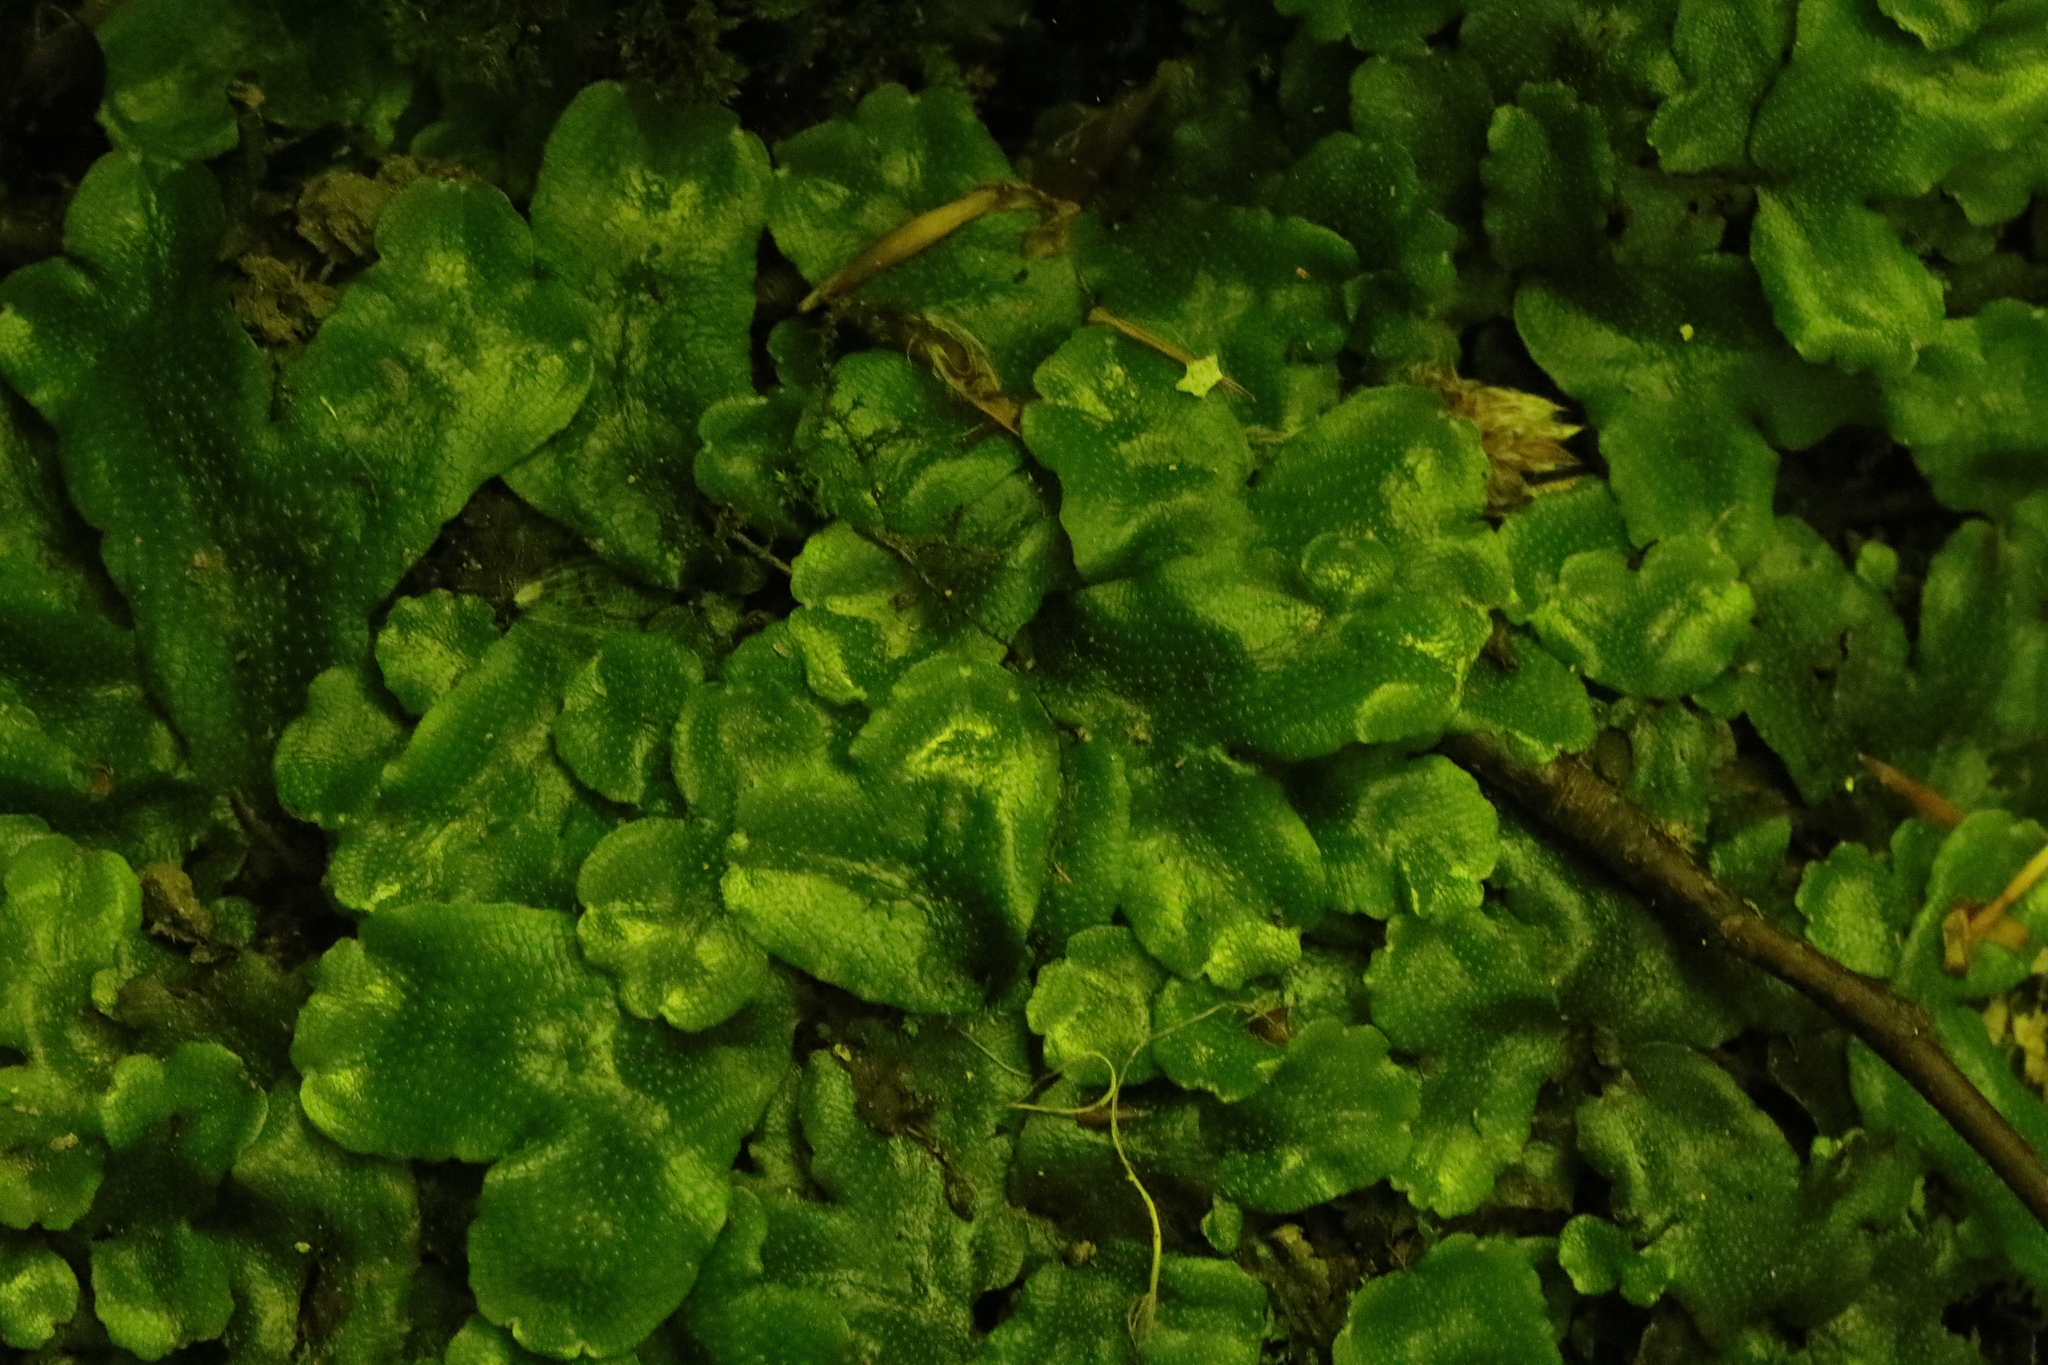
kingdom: Plantae
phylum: Marchantiophyta
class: Marchantiopsida
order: Marchantiales
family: Conocephalaceae
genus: Conocephalum
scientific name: Conocephalum conicum
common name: Great scented liverwort
